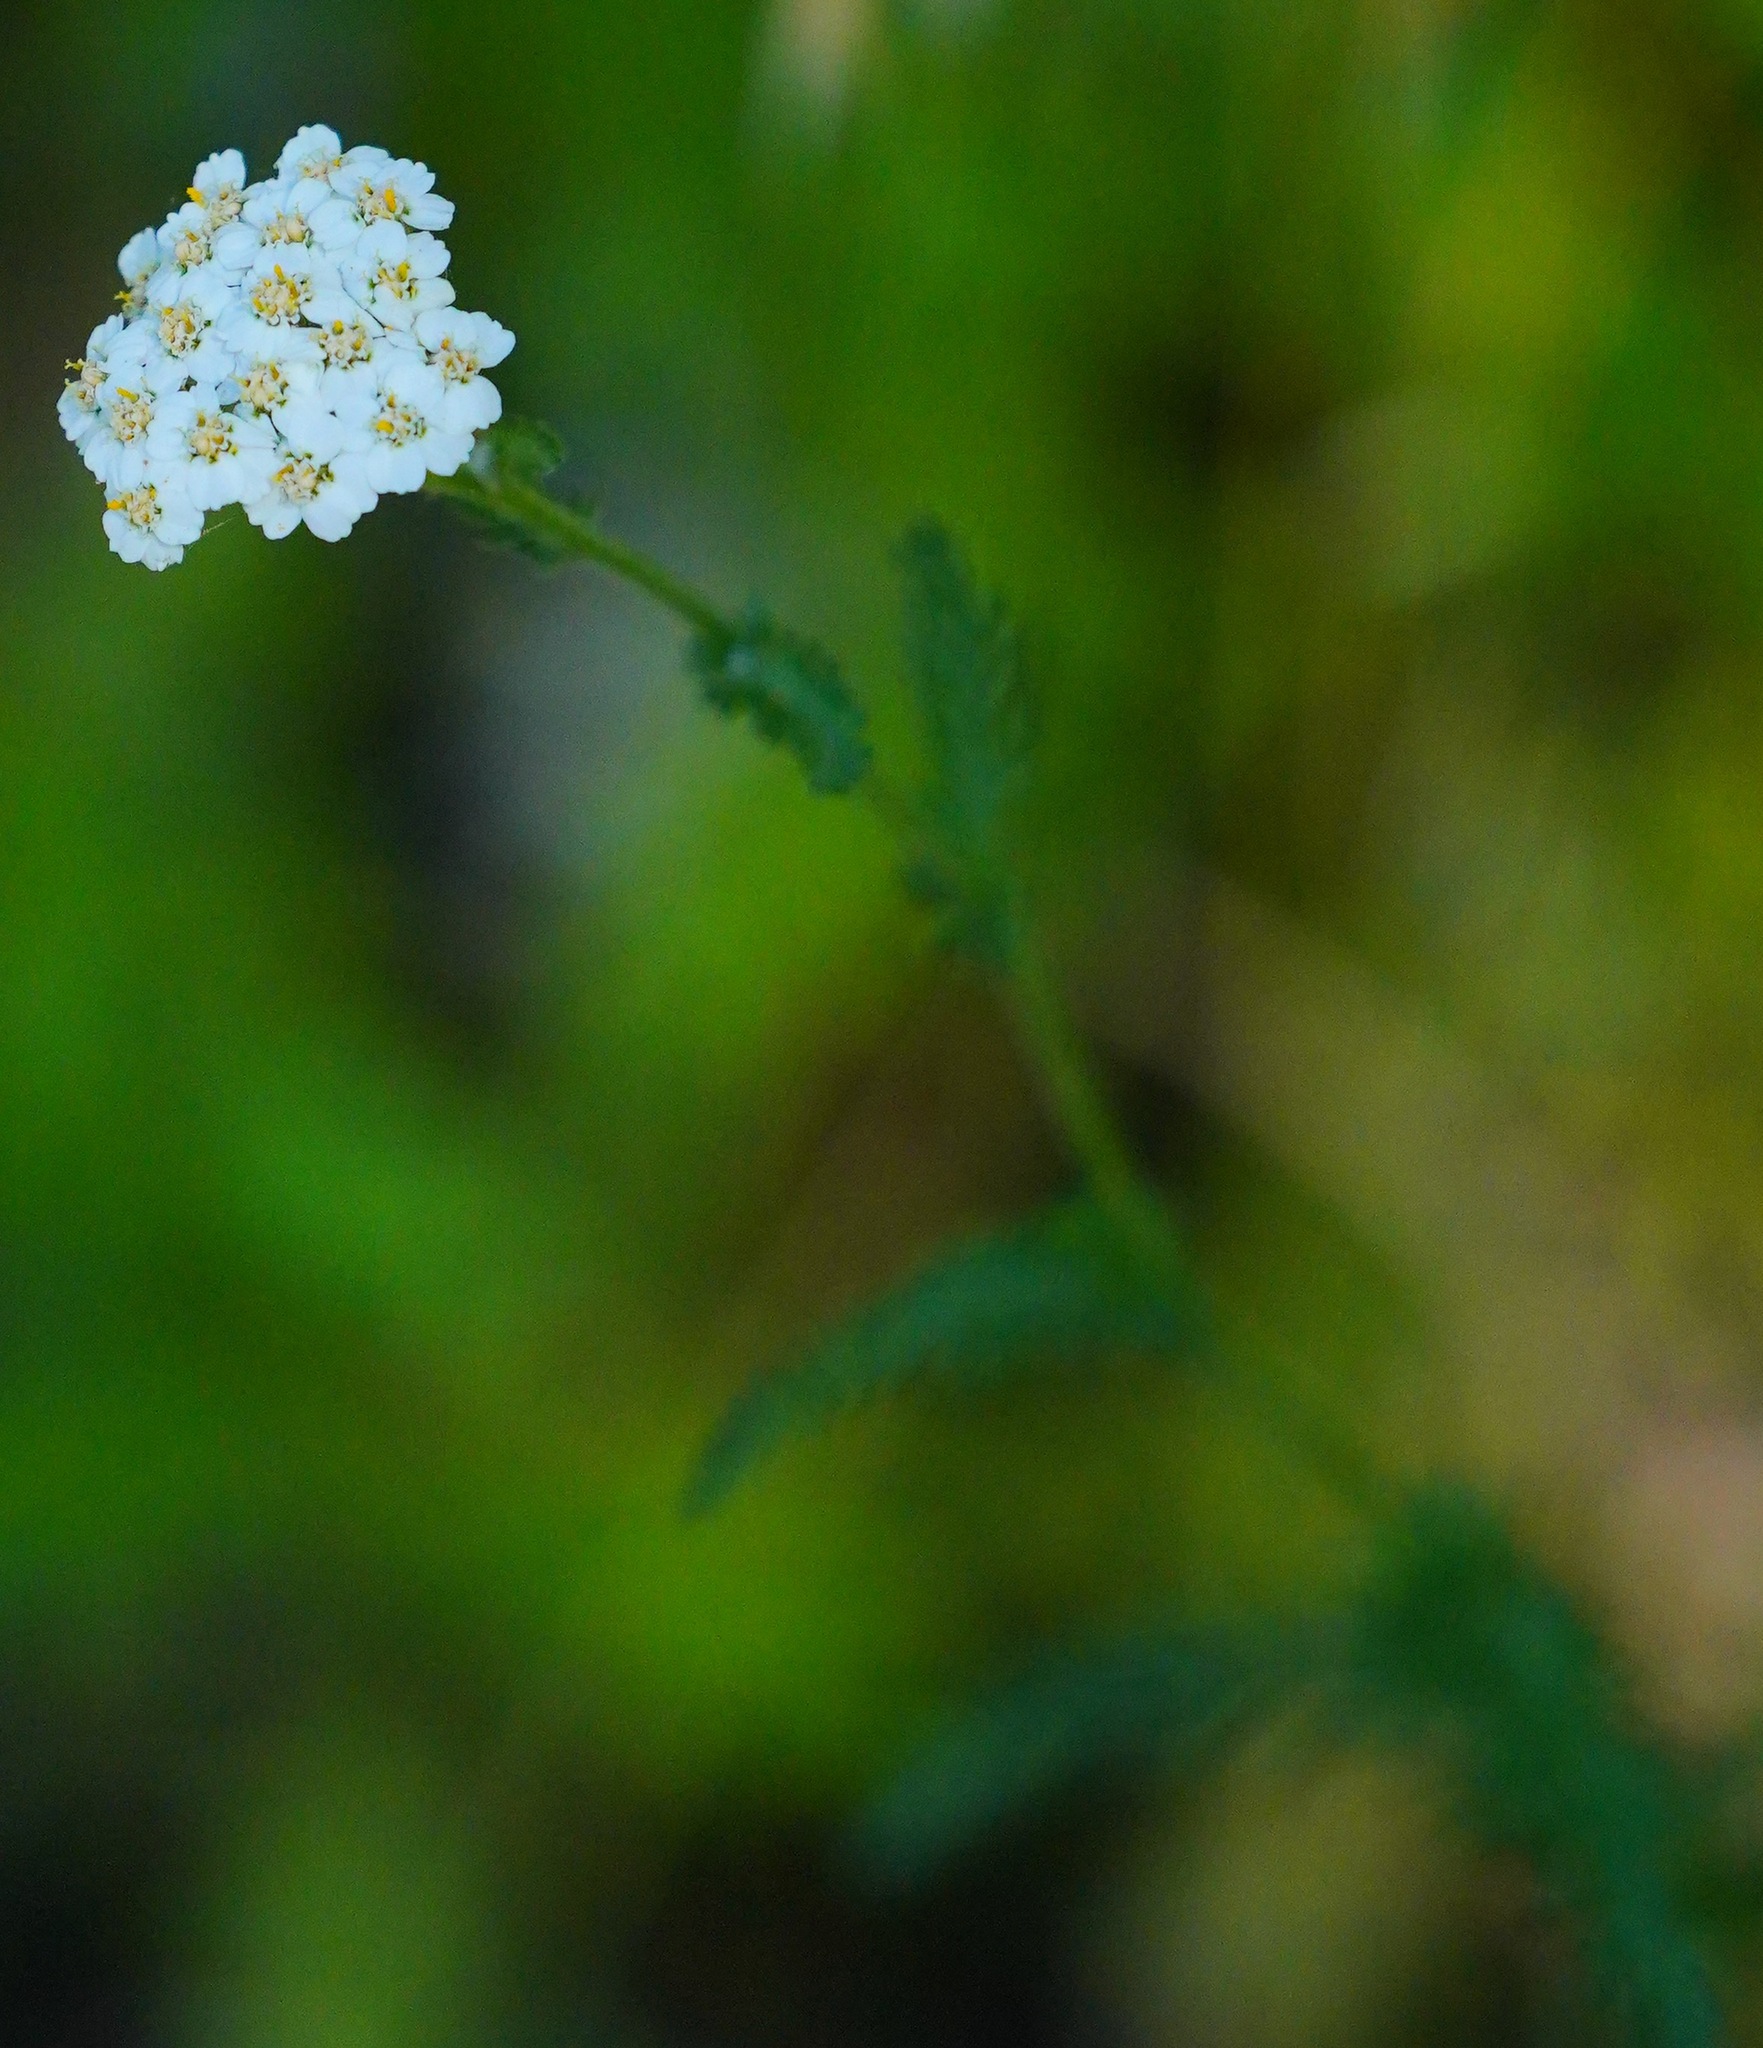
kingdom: Plantae
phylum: Tracheophyta
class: Magnoliopsida
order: Asterales
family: Asteraceae
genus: Achillea
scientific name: Achillea millefolium
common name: Yarrow
